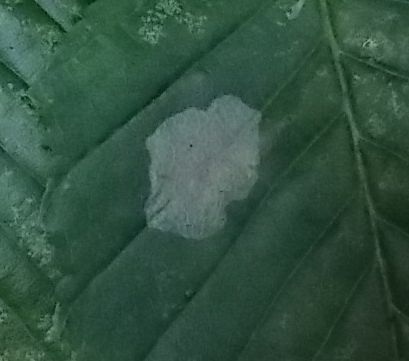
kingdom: Animalia
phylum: Arthropoda
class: Insecta
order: Lepidoptera
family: Gracillariidae
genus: Phyllonorycter
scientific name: Phyllonorycter esperella
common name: Dark hornbeam midget
